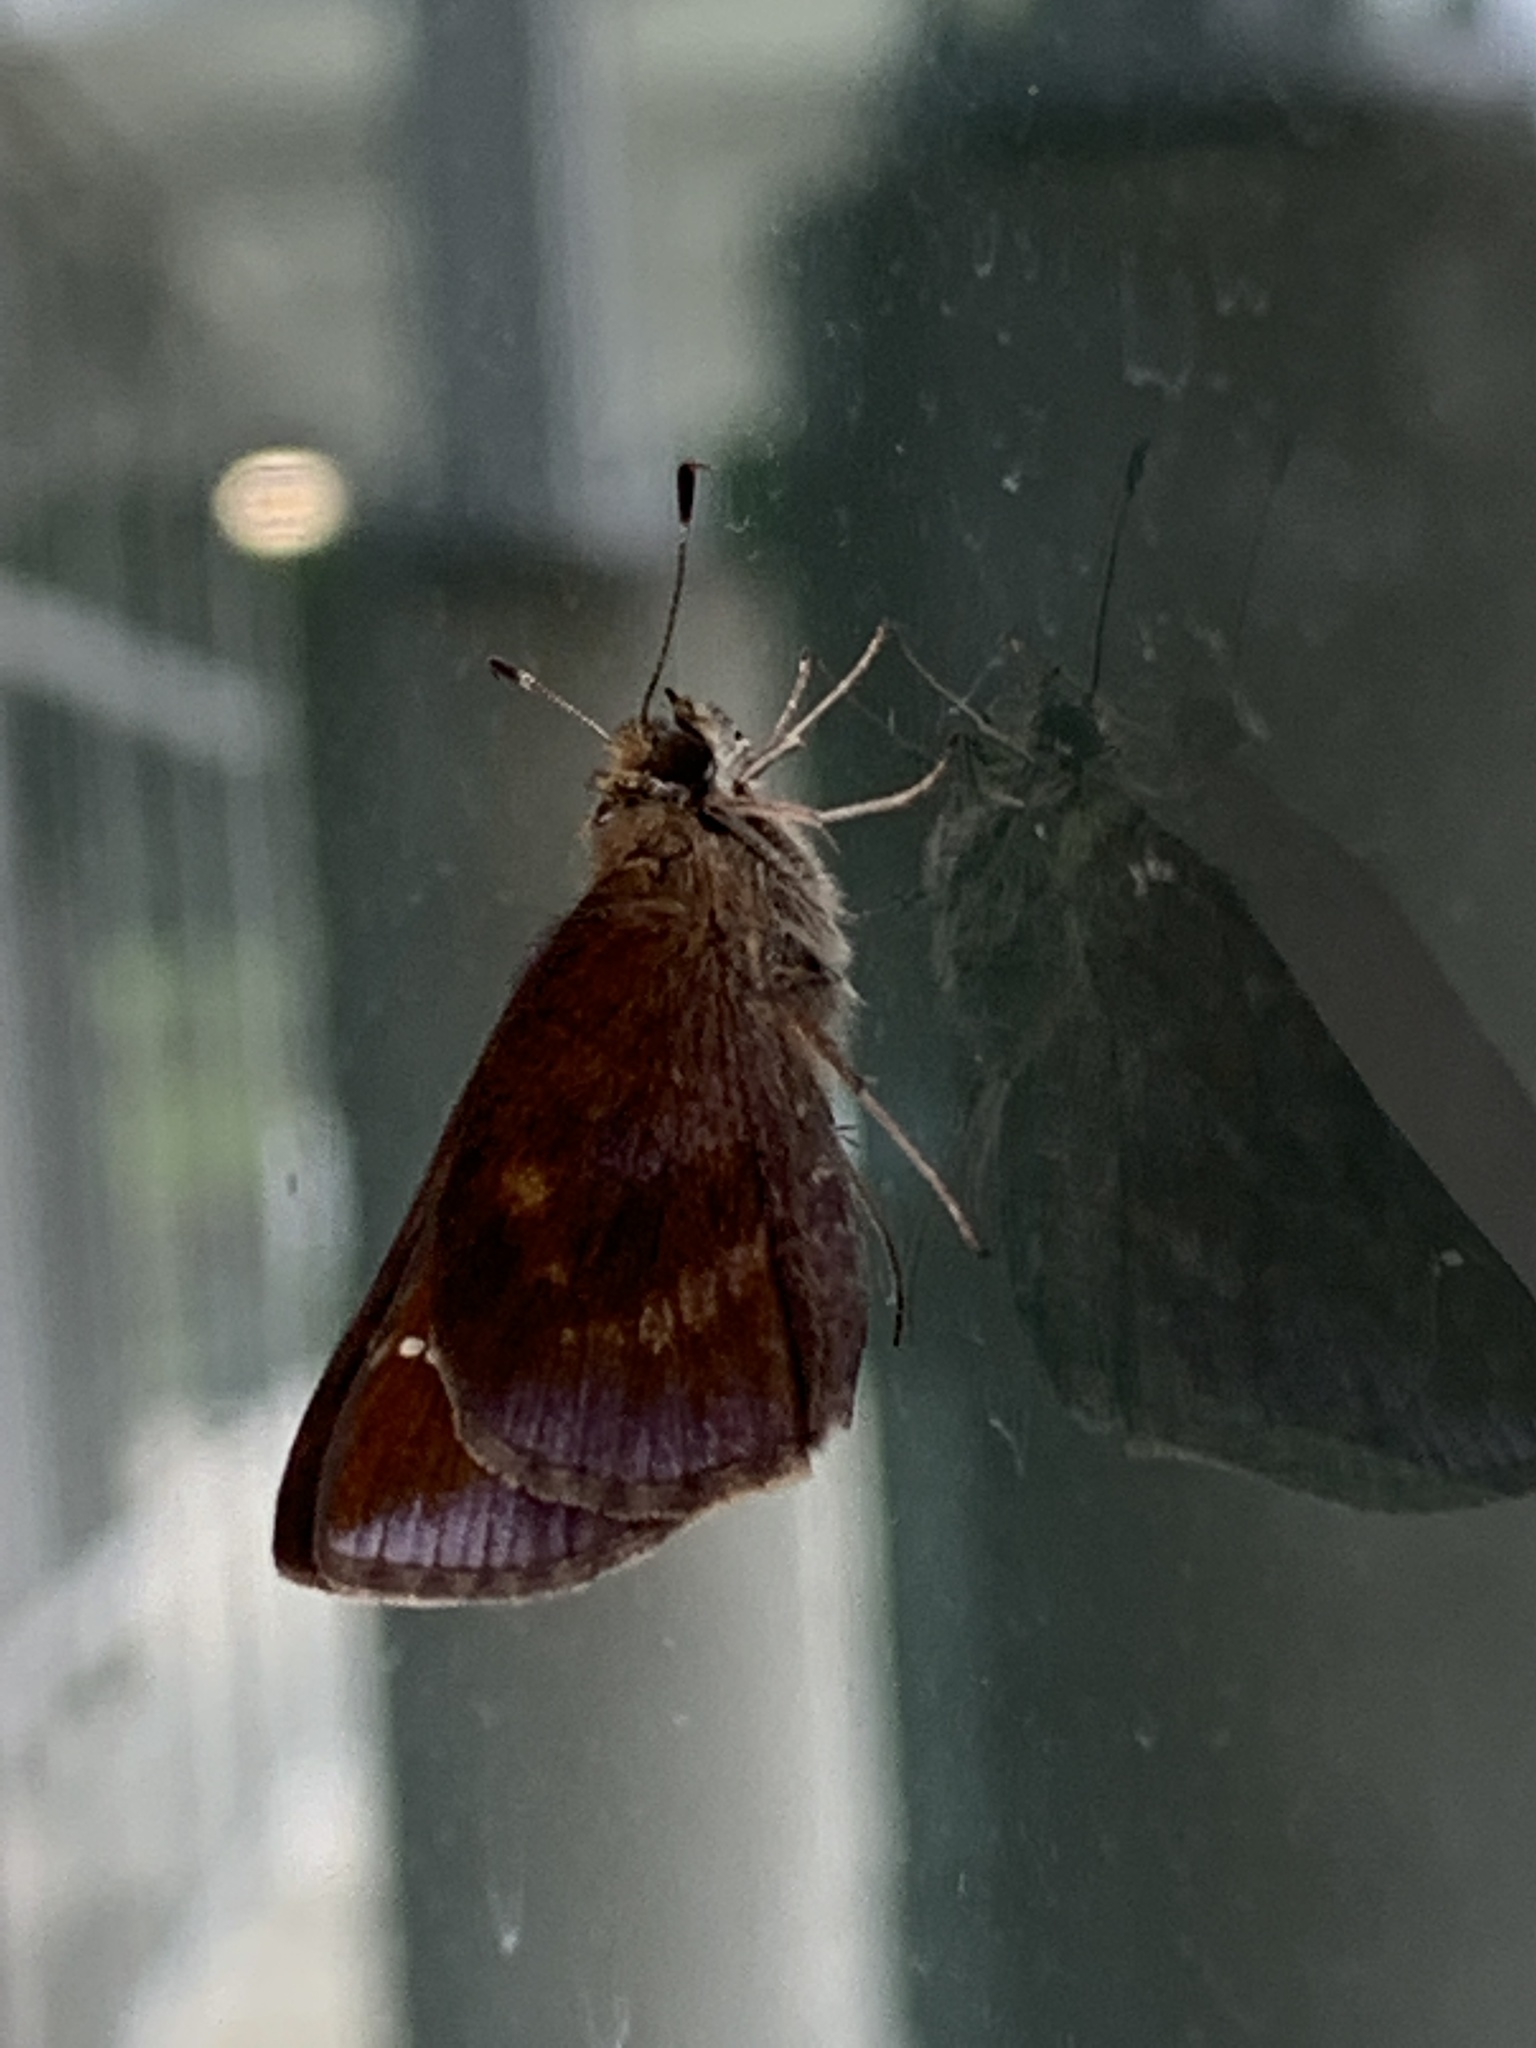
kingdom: Animalia
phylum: Arthropoda
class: Insecta
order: Lepidoptera
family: Hesperiidae
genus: Lerema
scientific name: Lerema accius
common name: Clouded skipper
